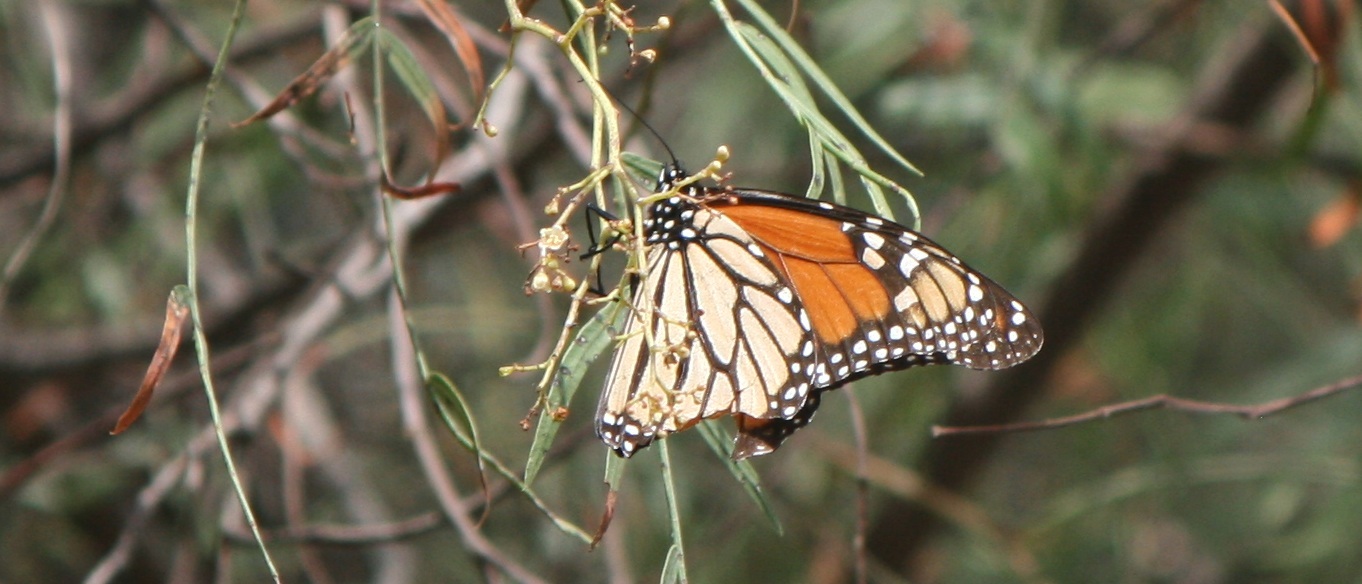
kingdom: Animalia
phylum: Arthropoda
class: Insecta
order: Lepidoptera
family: Nymphalidae
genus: Danaus
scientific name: Danaus plexippus
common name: Monarch
